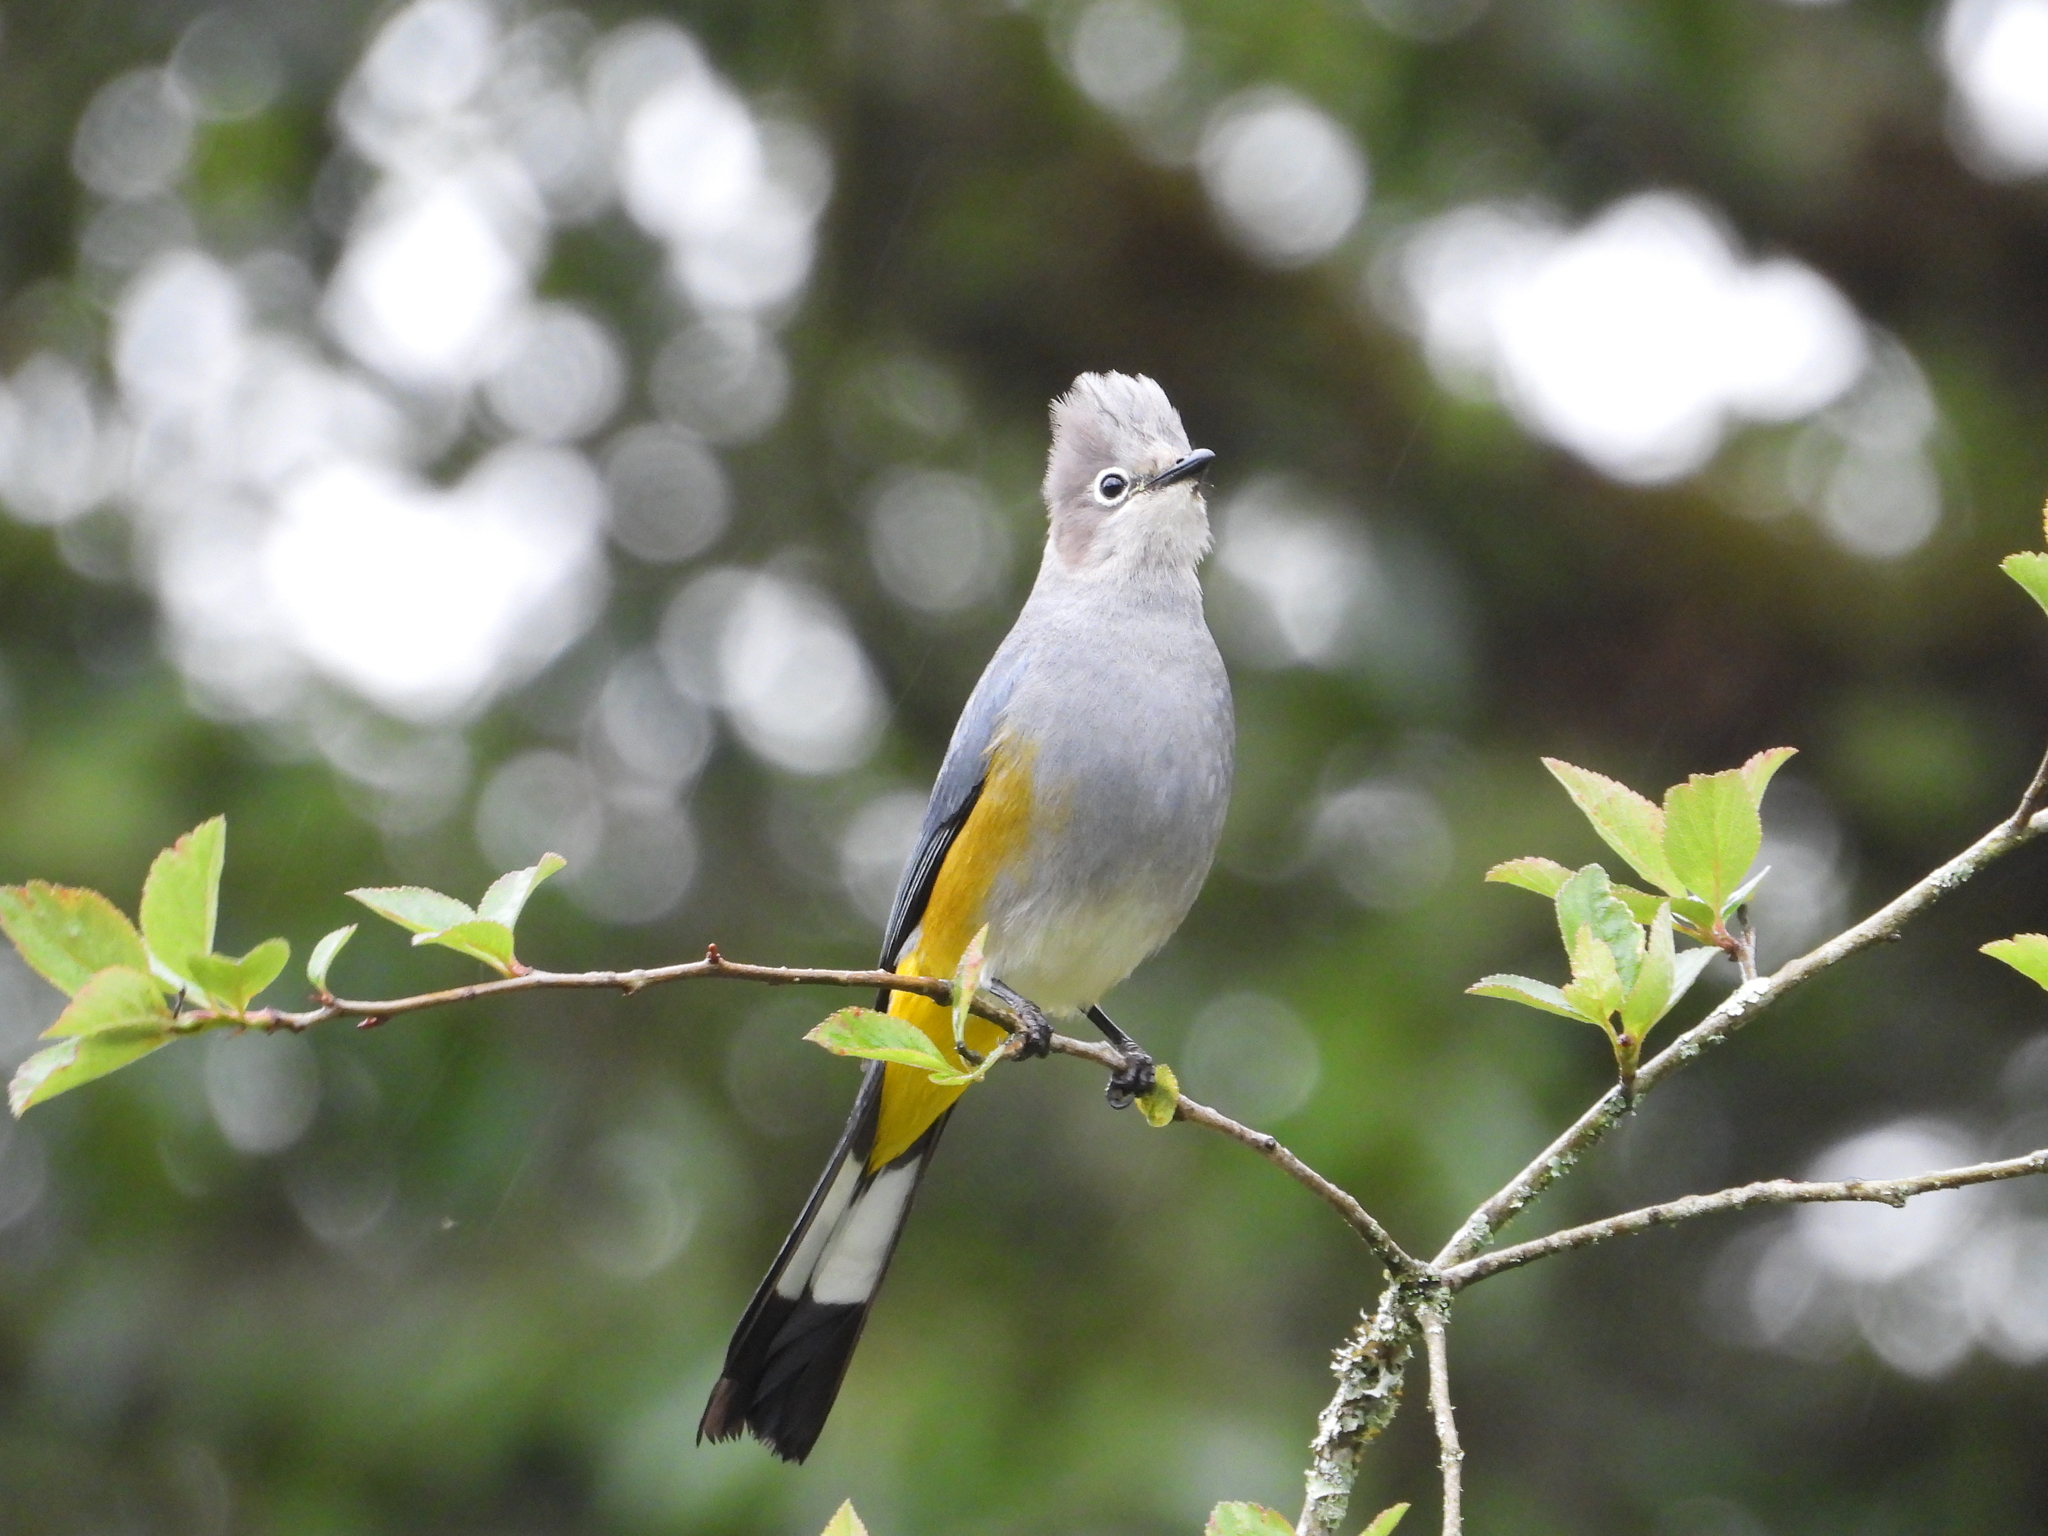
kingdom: Animalia
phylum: Chordata
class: Aves
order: Passeriformes
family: Ptilogonatidae
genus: Ptilogonys
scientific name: Ptilogonys cinereus
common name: Gray silky-flycatcher
